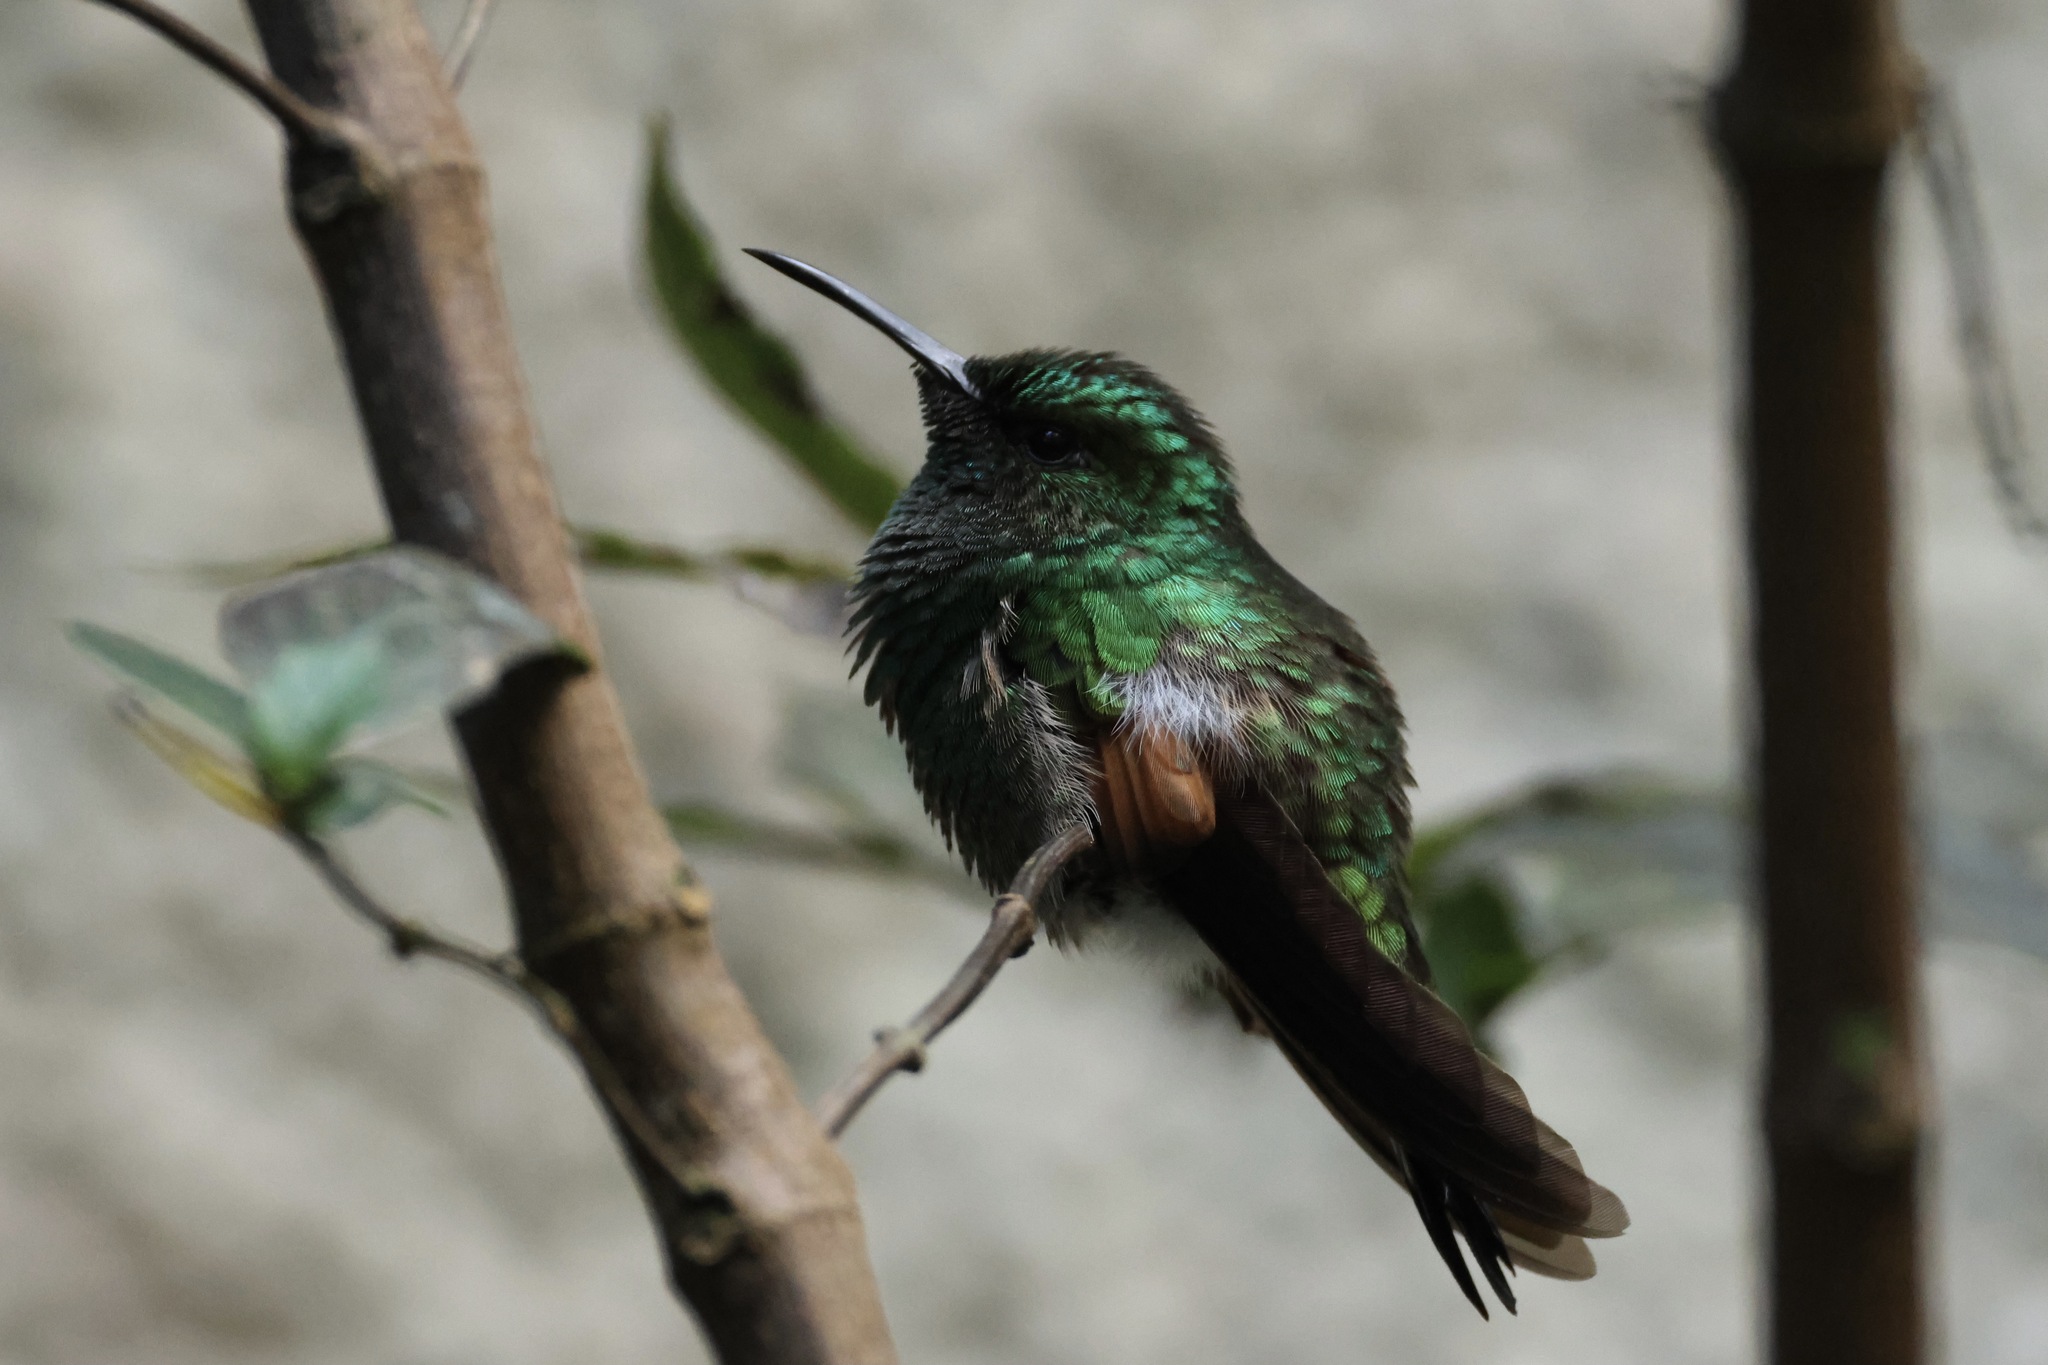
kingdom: Animalia
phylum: Chordata
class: Aves
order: Apodiformes
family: Trochilidae
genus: Eupherusa
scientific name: Eupherusa eximia
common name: Stripe-tailed hummingbird
